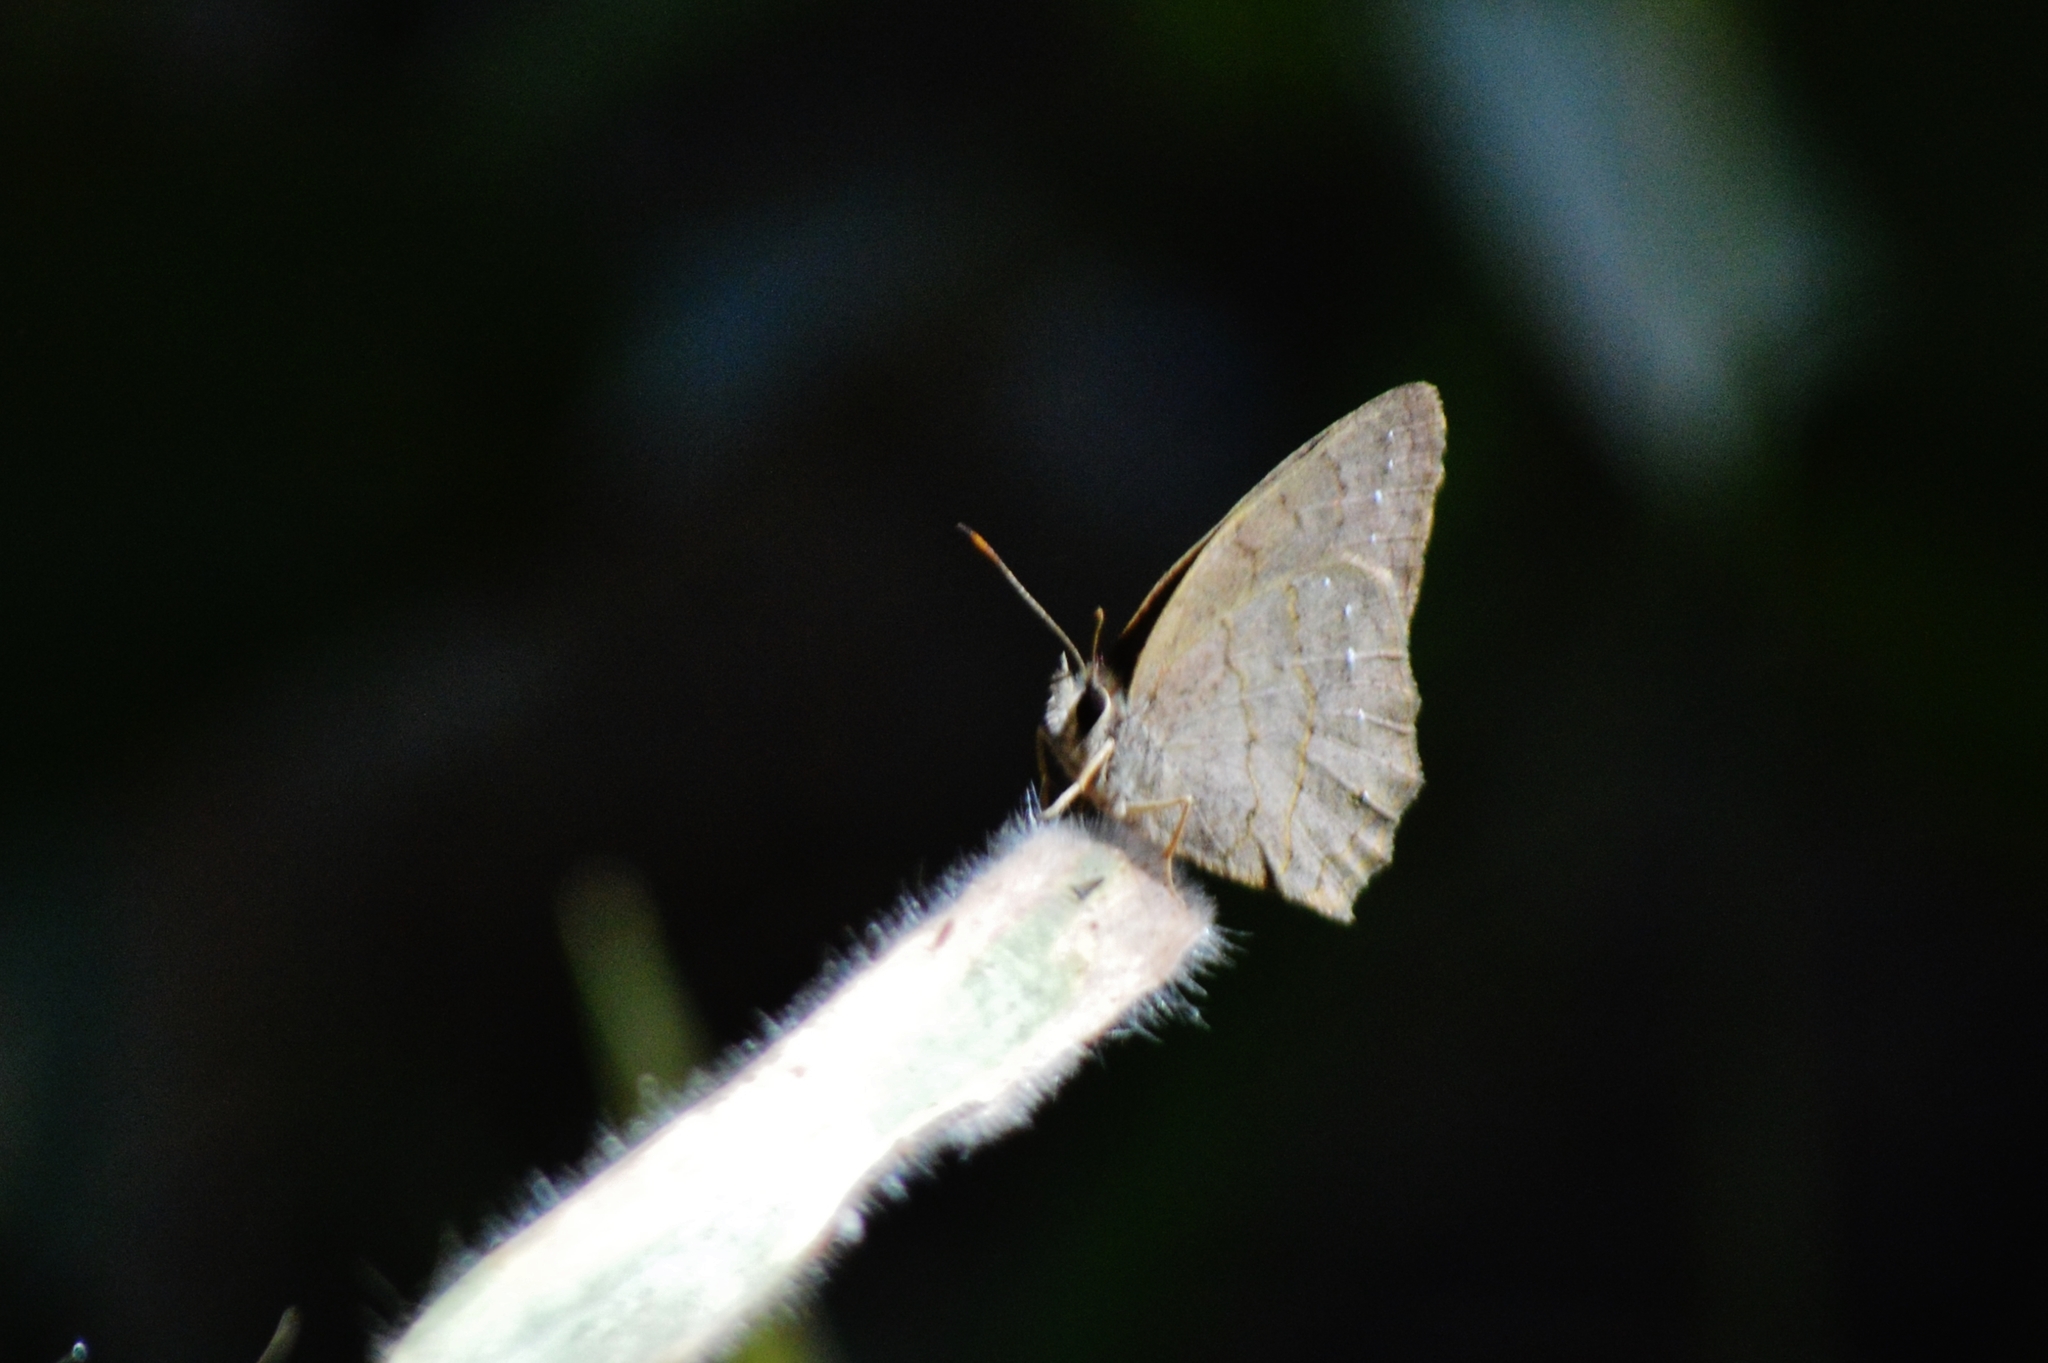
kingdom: Animalia
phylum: Arthropoda
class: Insecta
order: Lepidoptera
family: Nymphalidae
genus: Euptychia
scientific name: Euptychia
